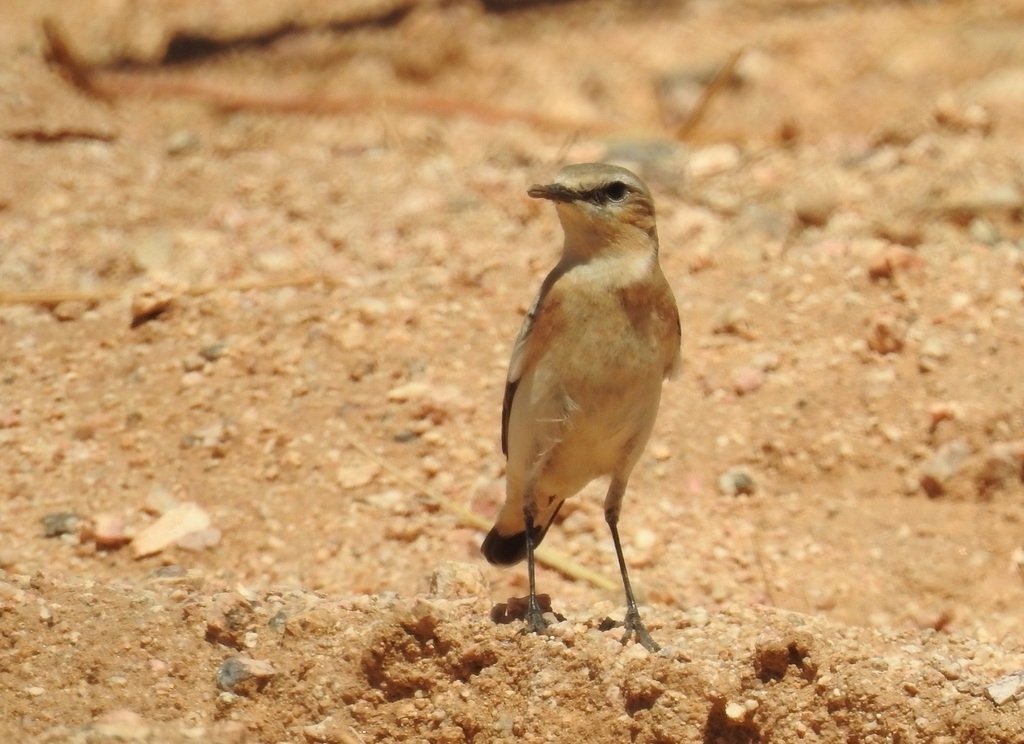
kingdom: Animalia
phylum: Chordata
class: Aves
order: Passeriformes
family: Muscicapidae
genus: Oenanthe
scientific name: Oenanthe isabellina
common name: Isabelline wheatear
